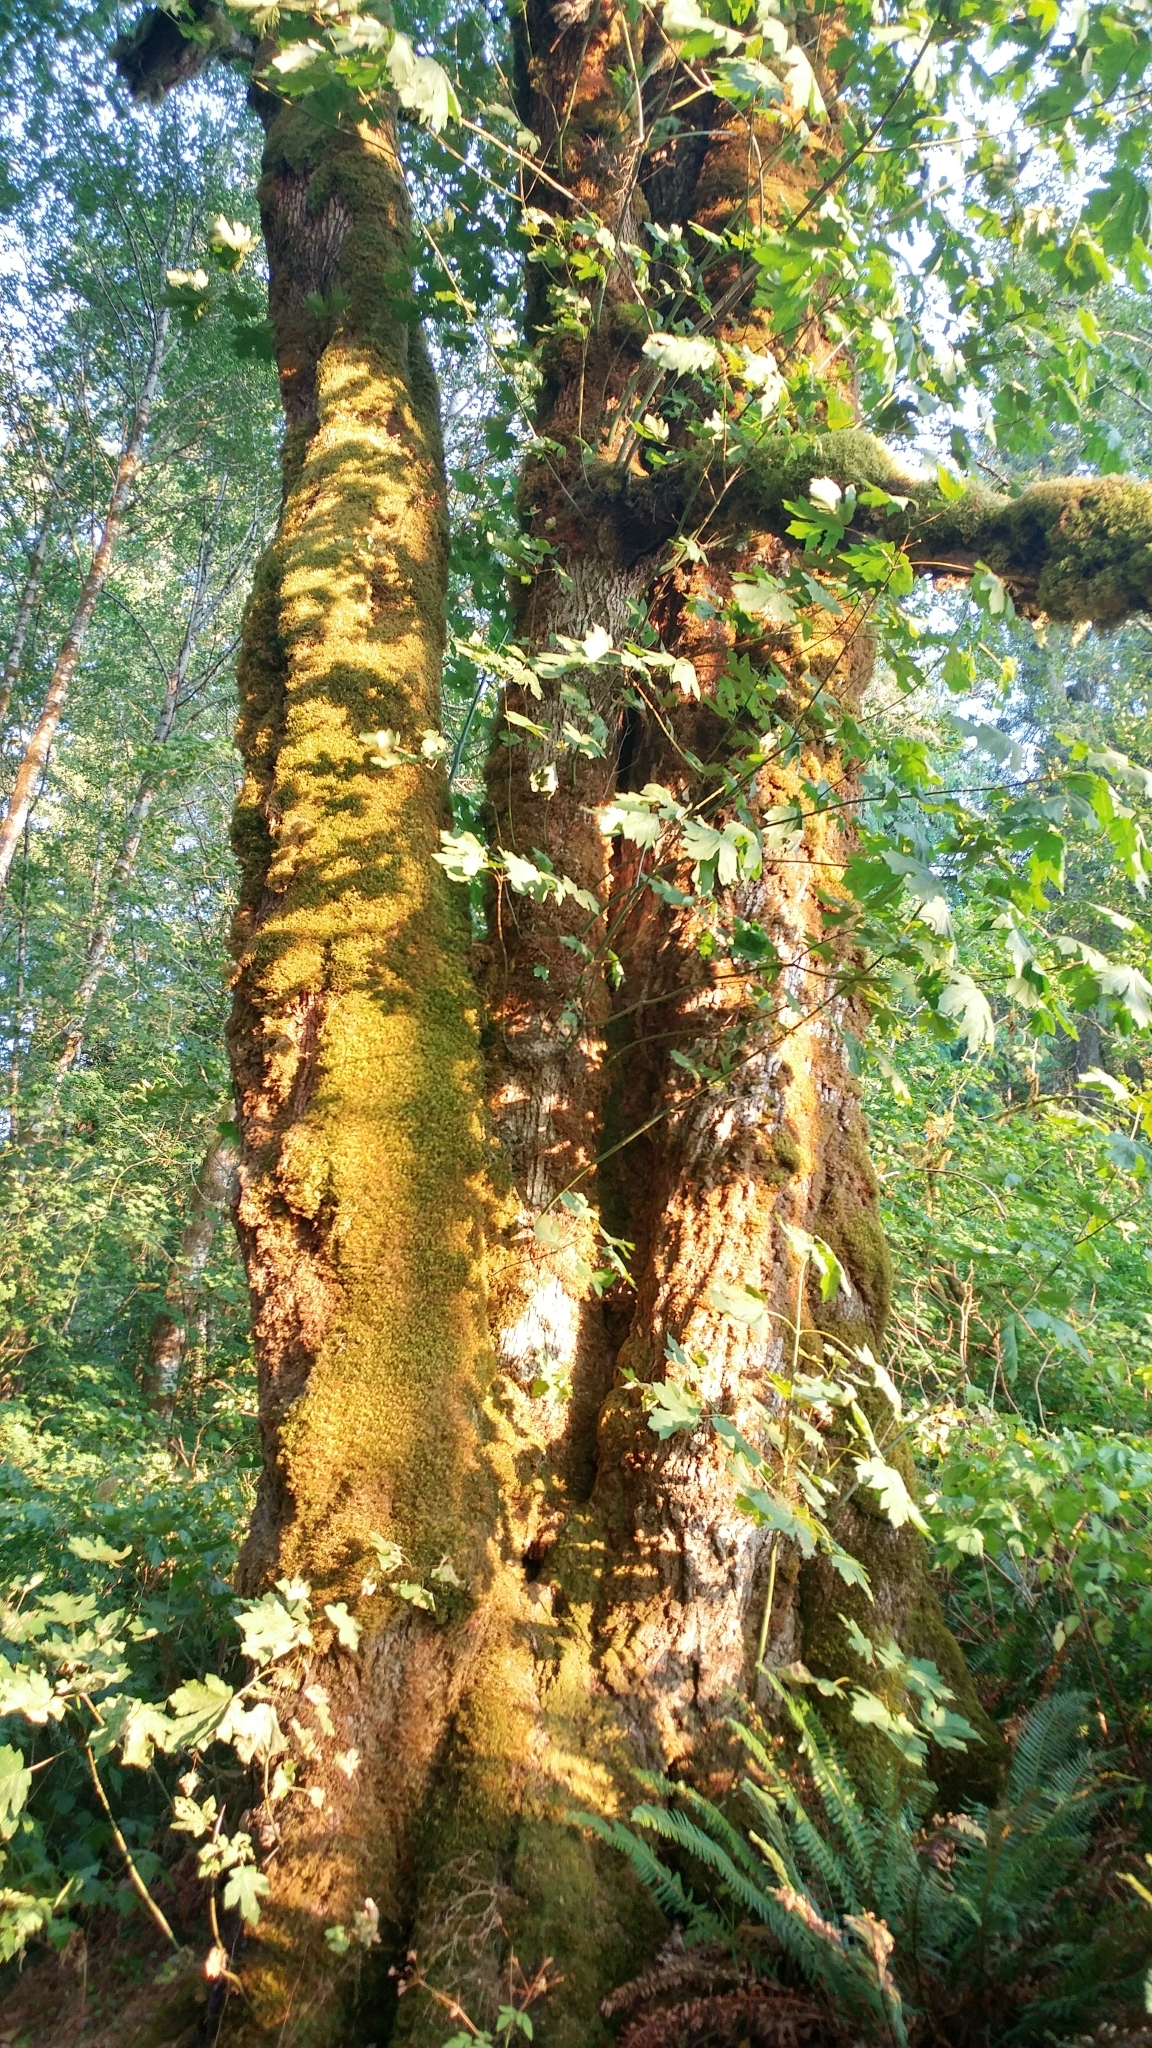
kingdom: Plantae
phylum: Tracheophyta
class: Magnoliopsida
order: Sapindales
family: Sapindaceae
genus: Acer
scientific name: Acer macrophyllum
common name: Oregon maple
